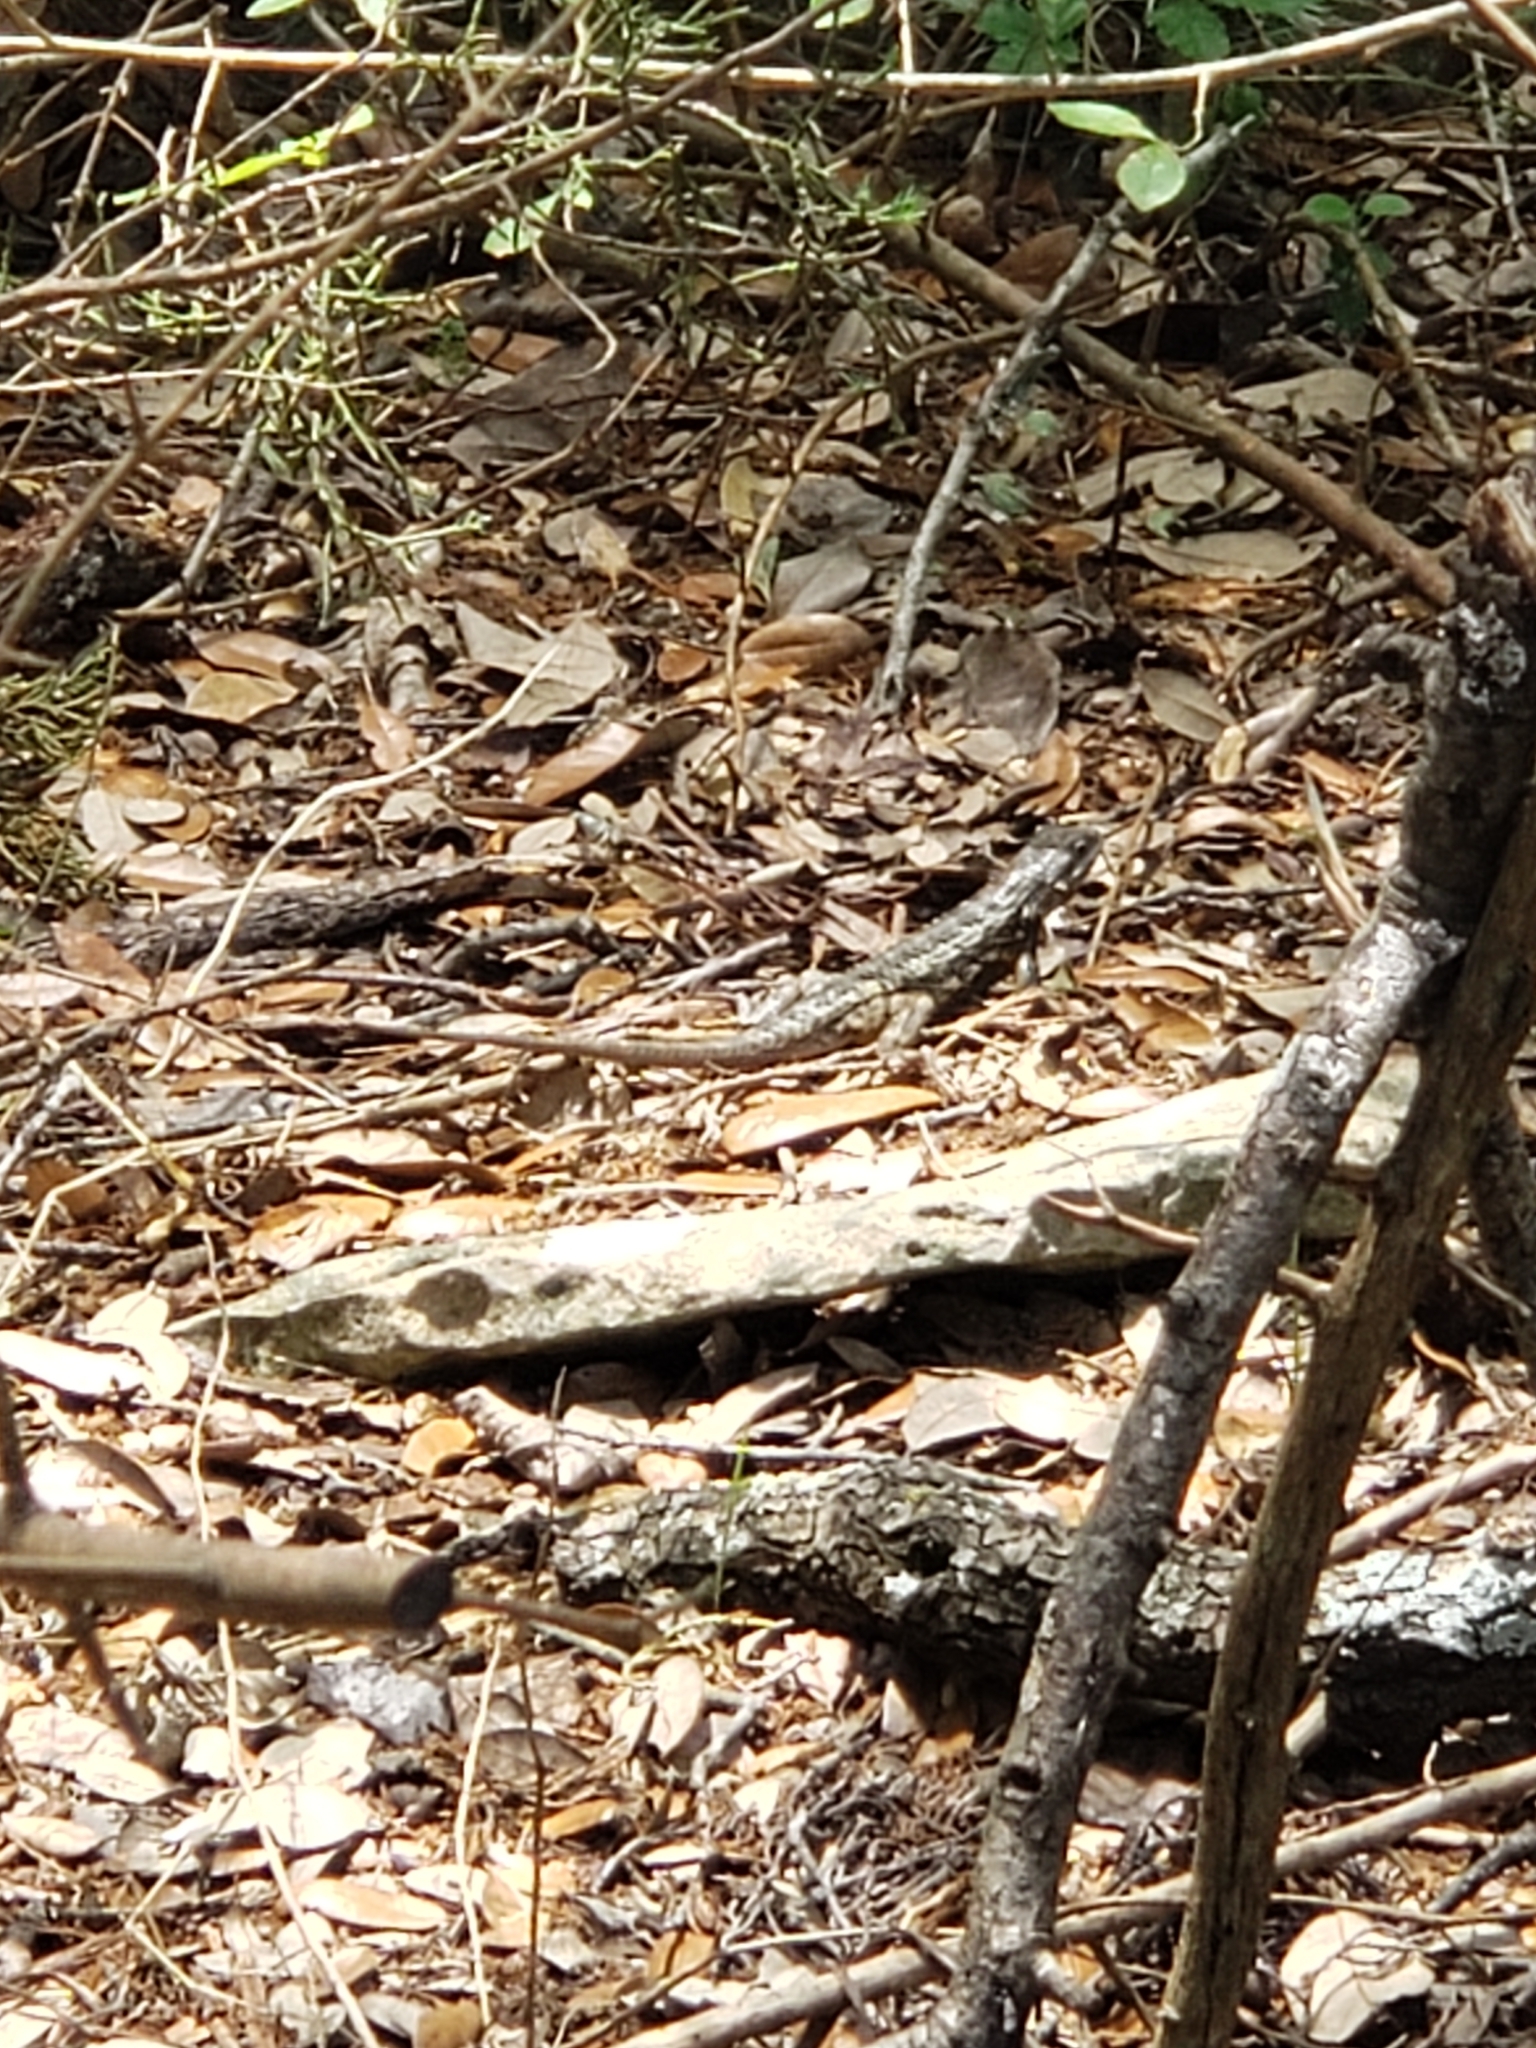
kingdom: Animalia
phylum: Chordata
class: Squamata
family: Phrynosomatidae
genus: Sceloporus
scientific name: Sceloporus olivaceus
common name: Texas spiny lizard
